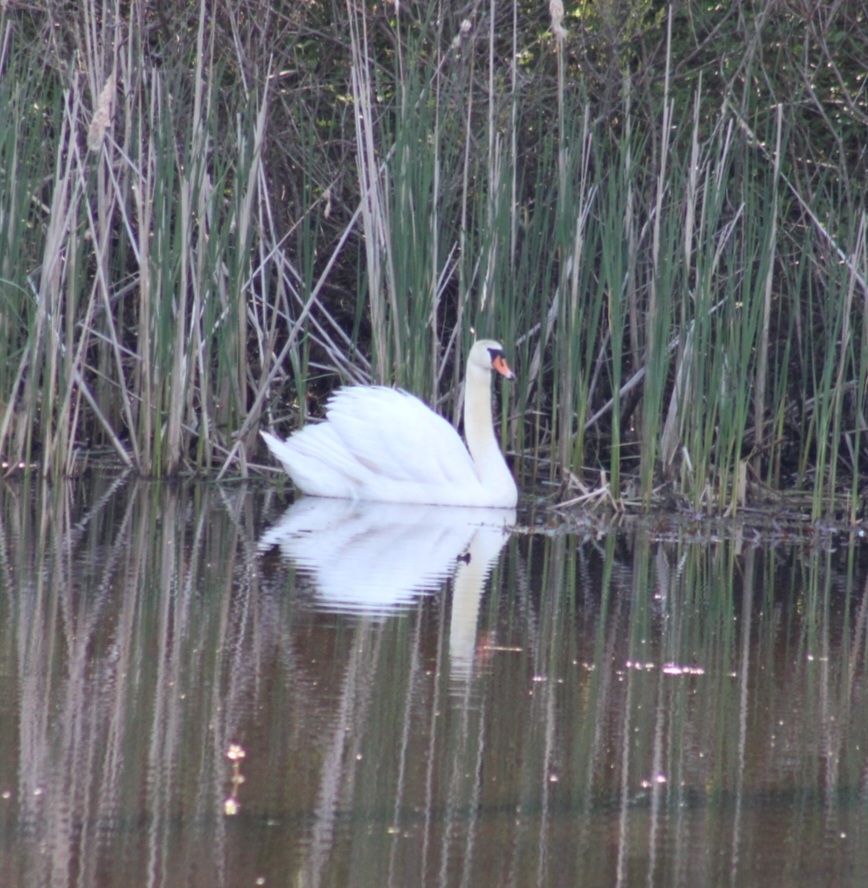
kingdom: Animalia
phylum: Chordata
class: Aves
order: Anseriformes
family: Anatidae
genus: Cygnus
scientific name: Cygnus olor
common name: Mute swan
